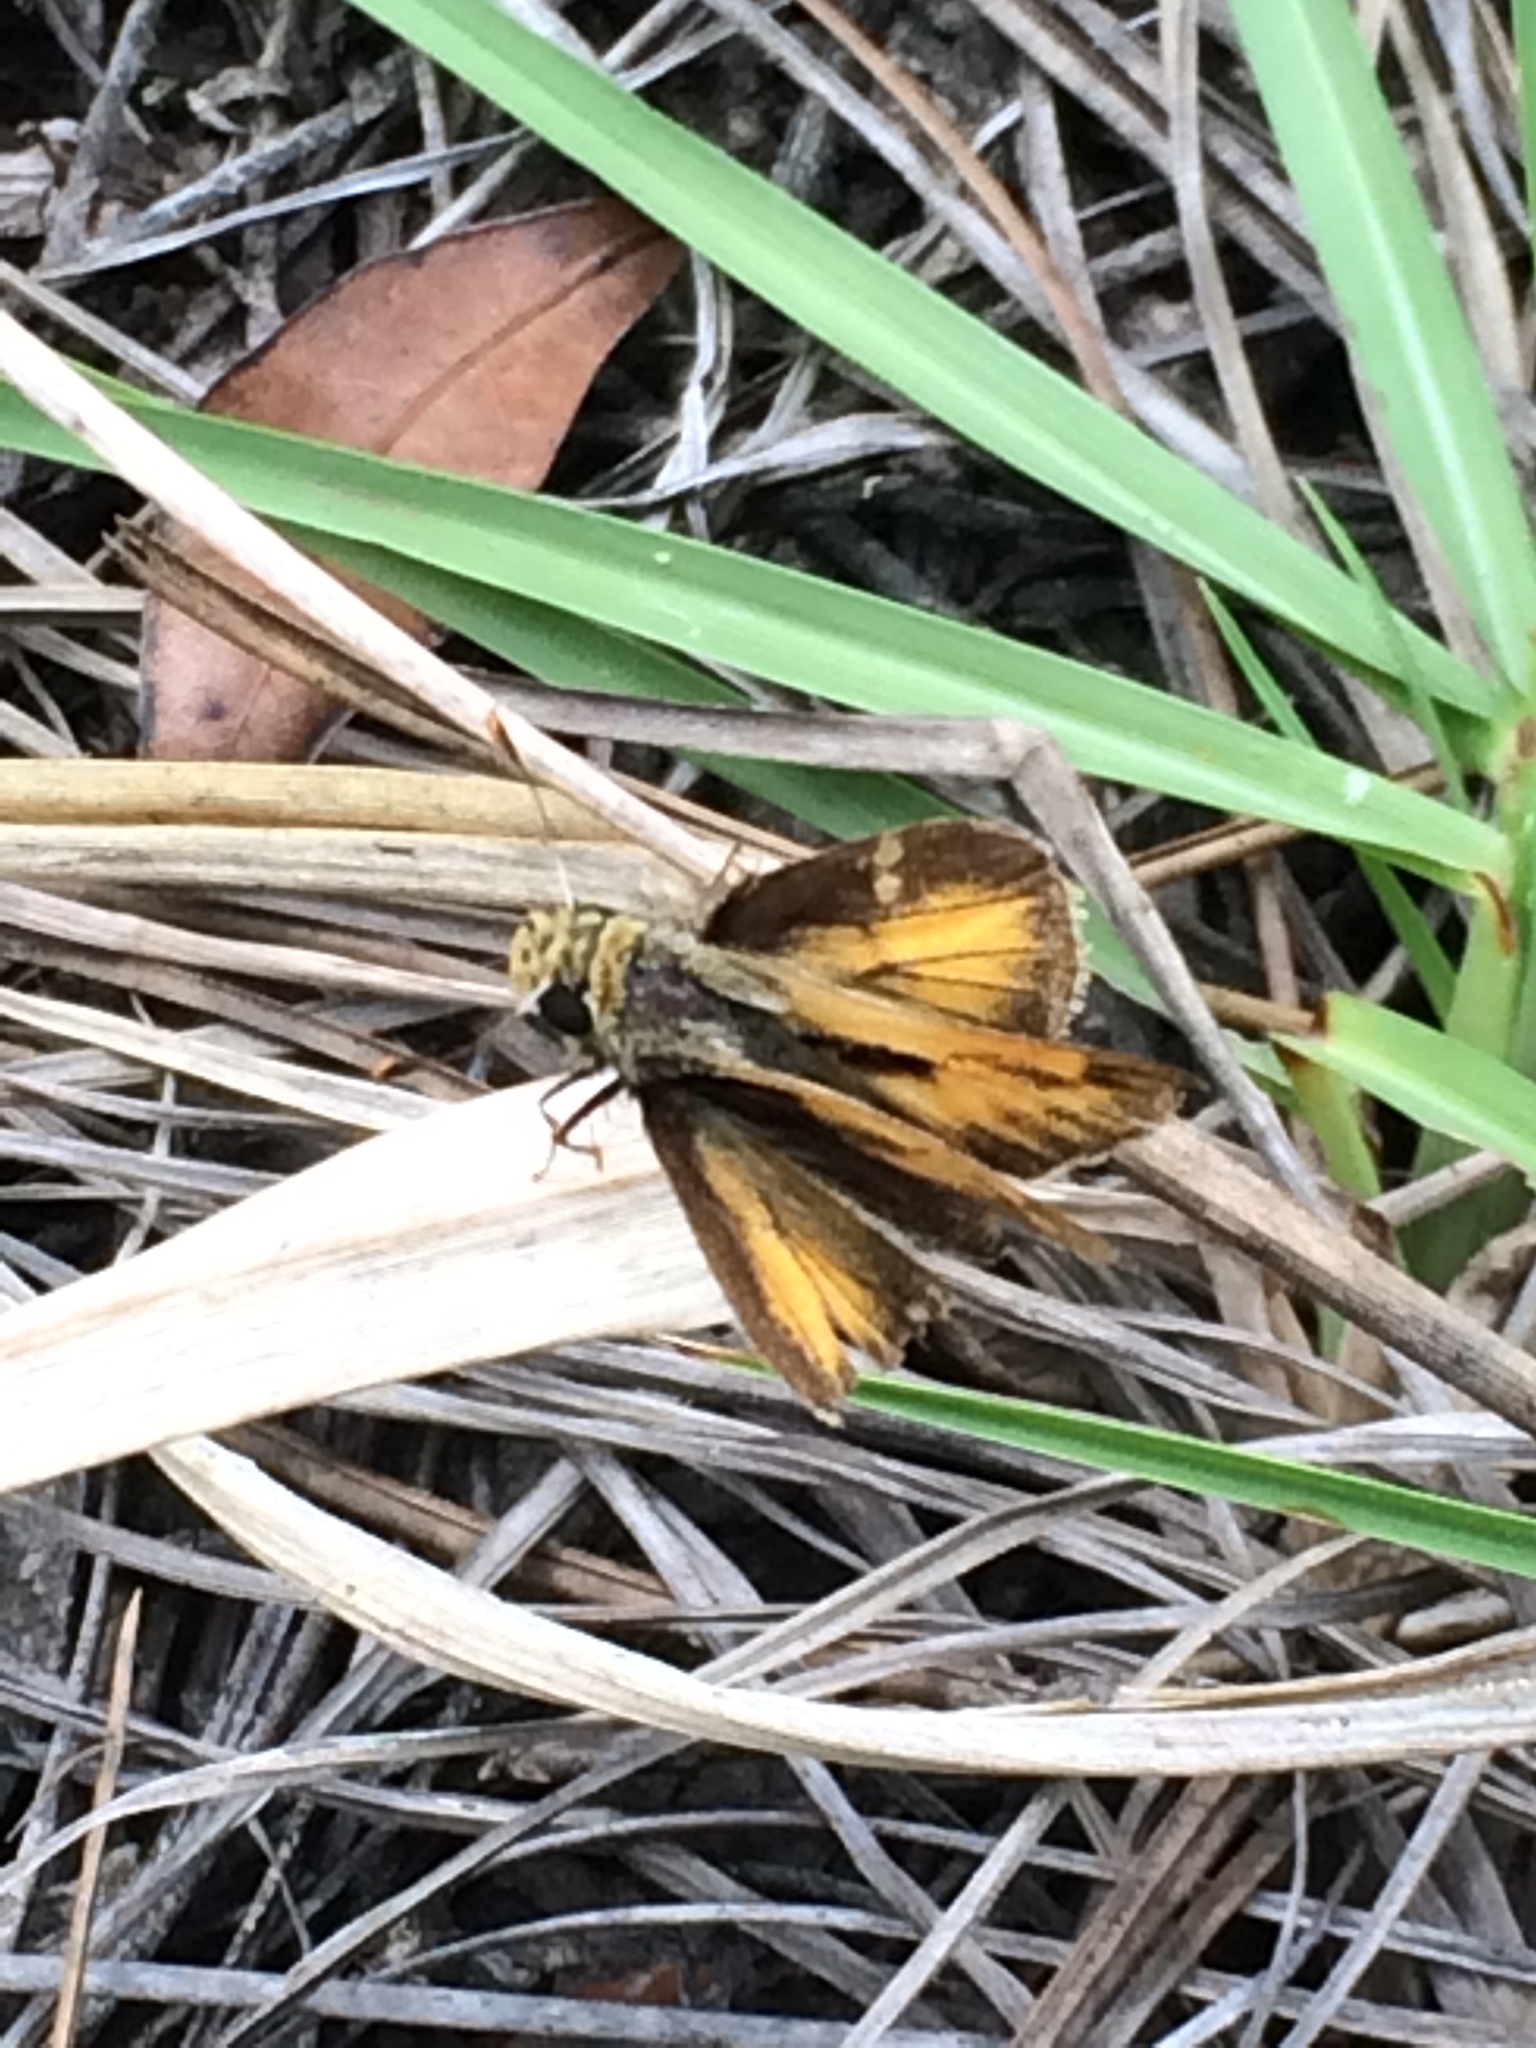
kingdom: Animalia
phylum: Arthropoda
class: Insecta
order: Lepidoptera
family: Hesperiidae
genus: Polites
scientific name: Polites vibex
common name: Whirlabout
